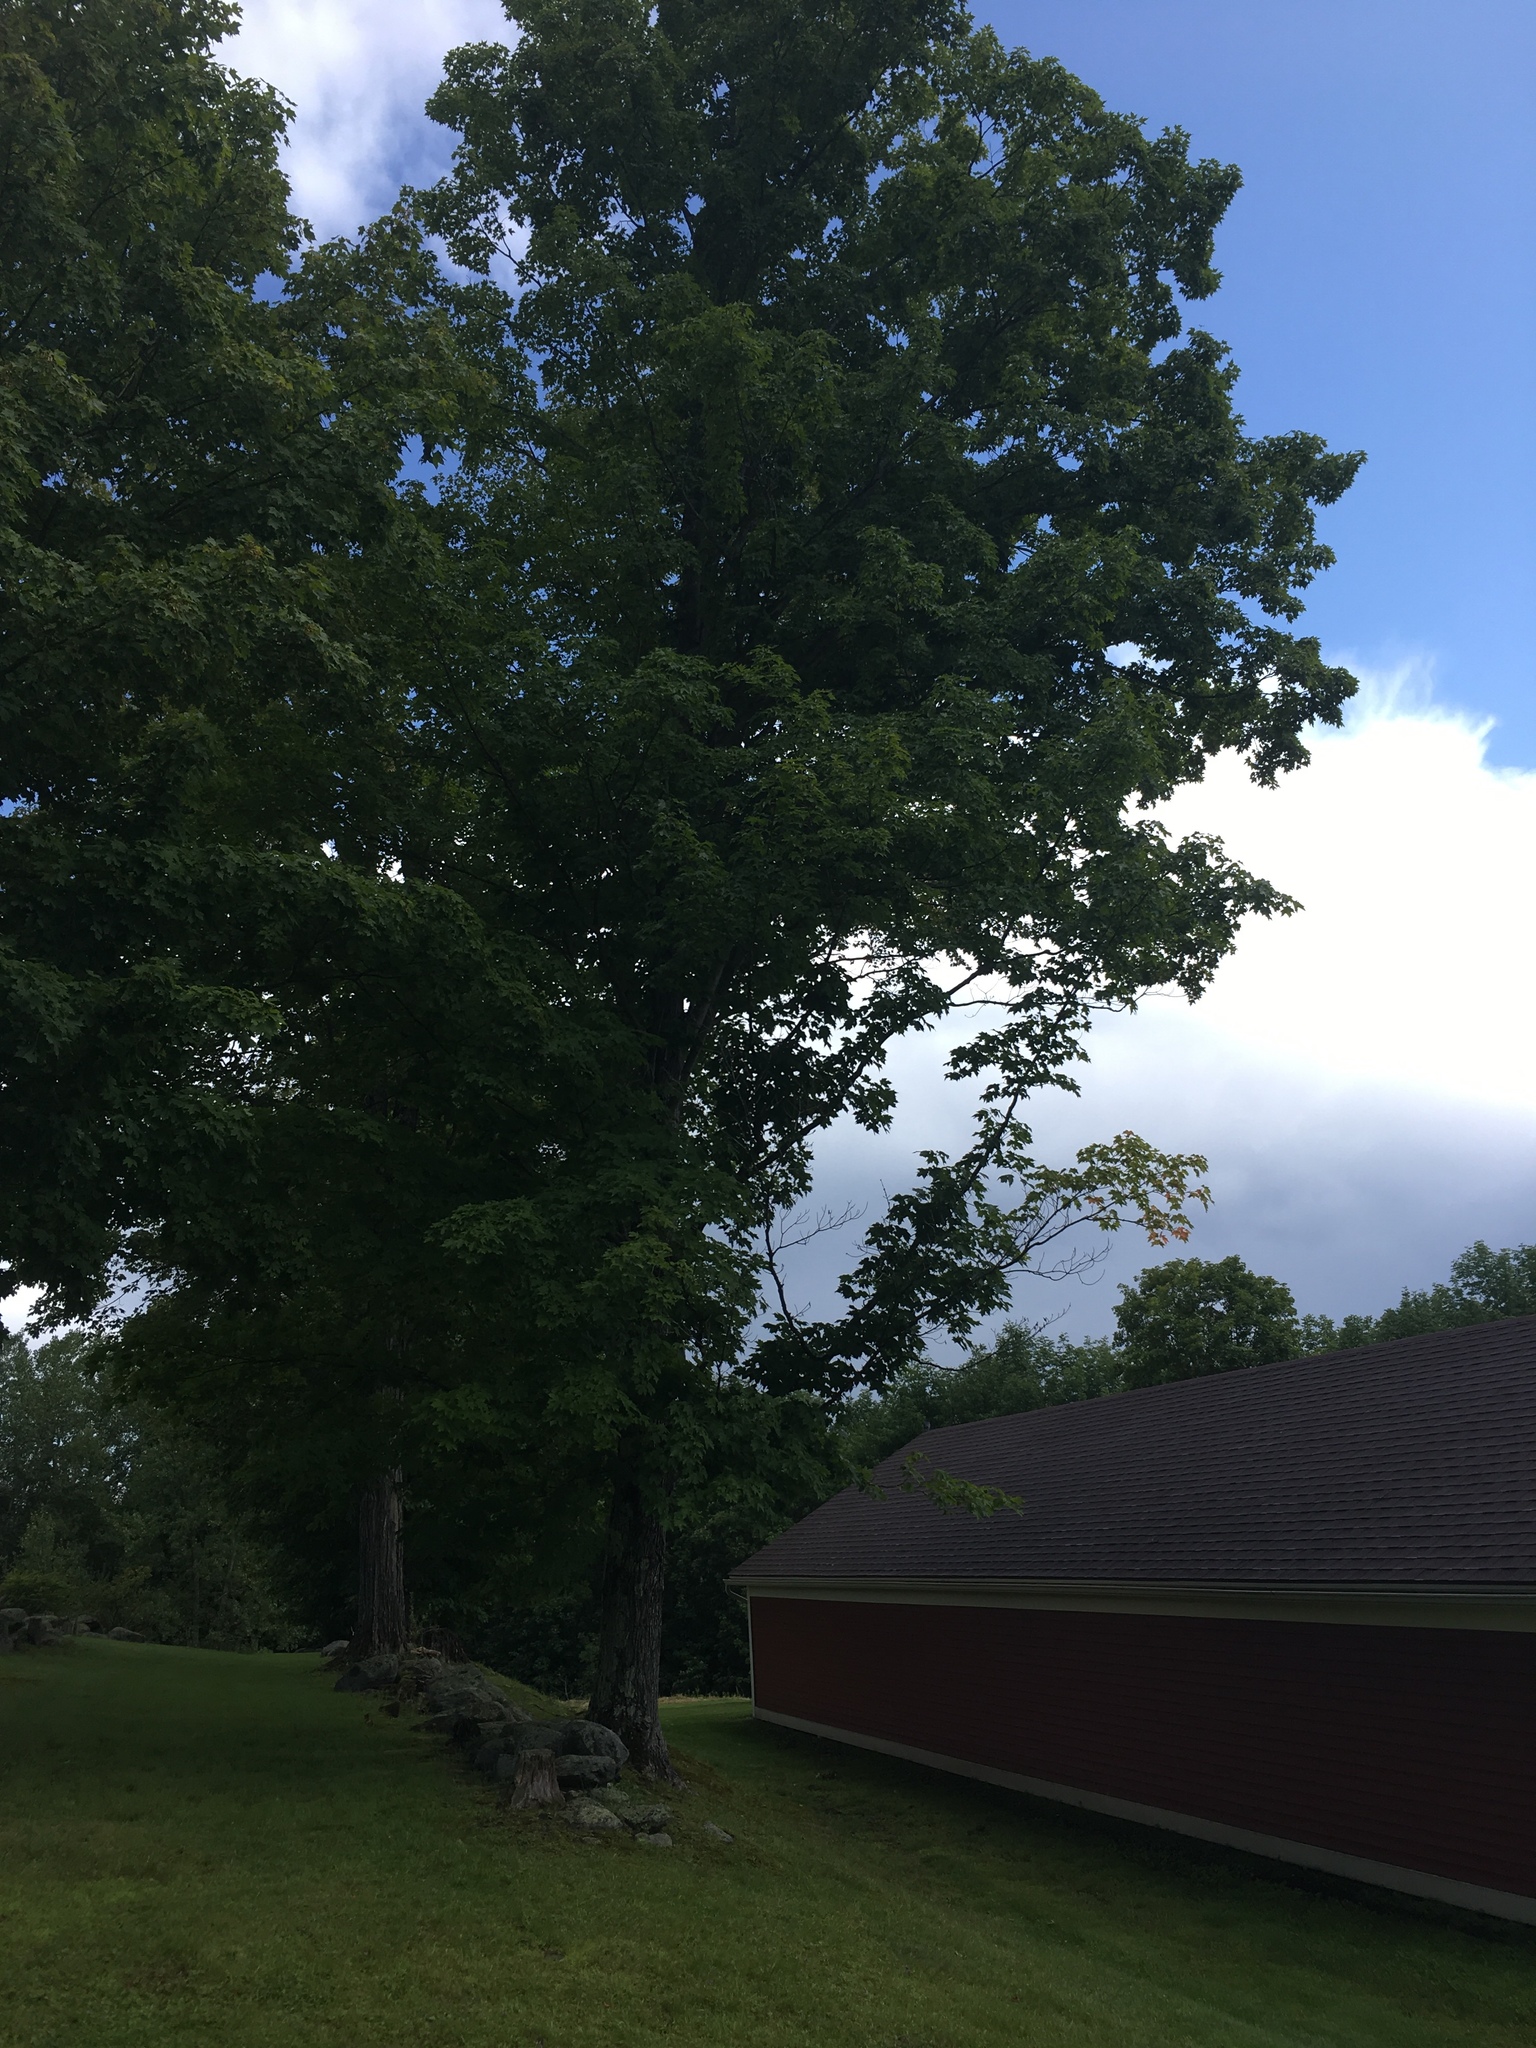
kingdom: Plantae
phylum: Tracheophyta
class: Magnoliopsida
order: Sapindales
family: Sapindaceae
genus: Acer
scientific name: Acer saccharum
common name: Sugar maple
